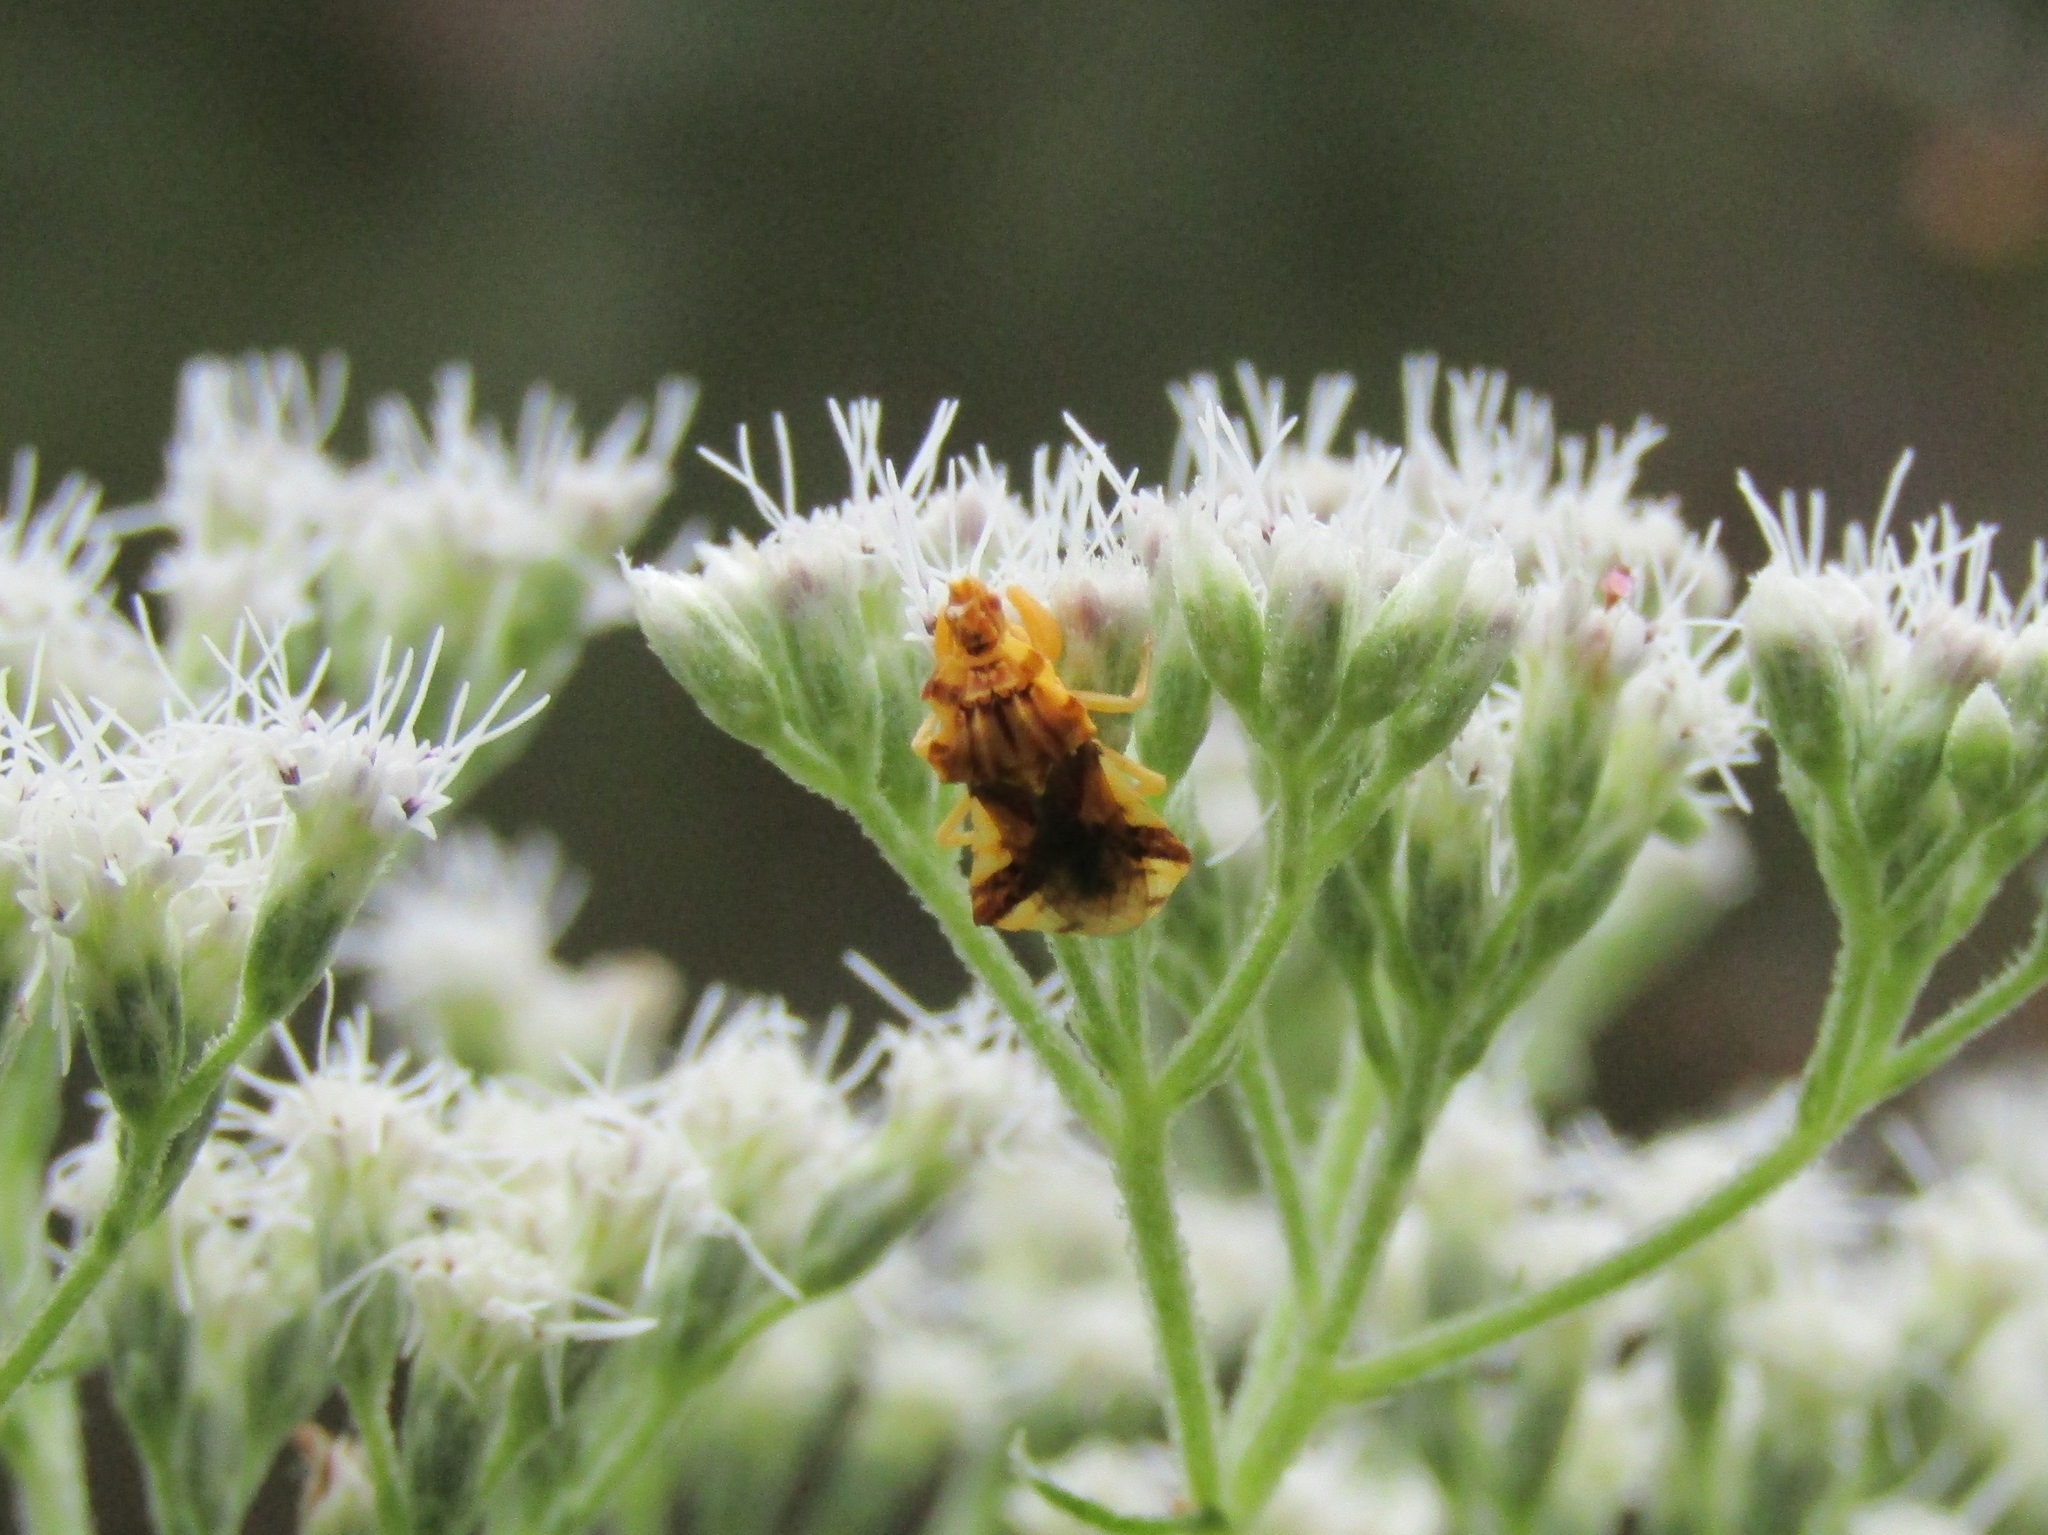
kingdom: Animalia
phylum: Arthropoda
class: Insecta
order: Hemiptera
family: Reduviidae
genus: Phymata
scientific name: Phymata pennsylvanica
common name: Pennsylvania ambush bug
